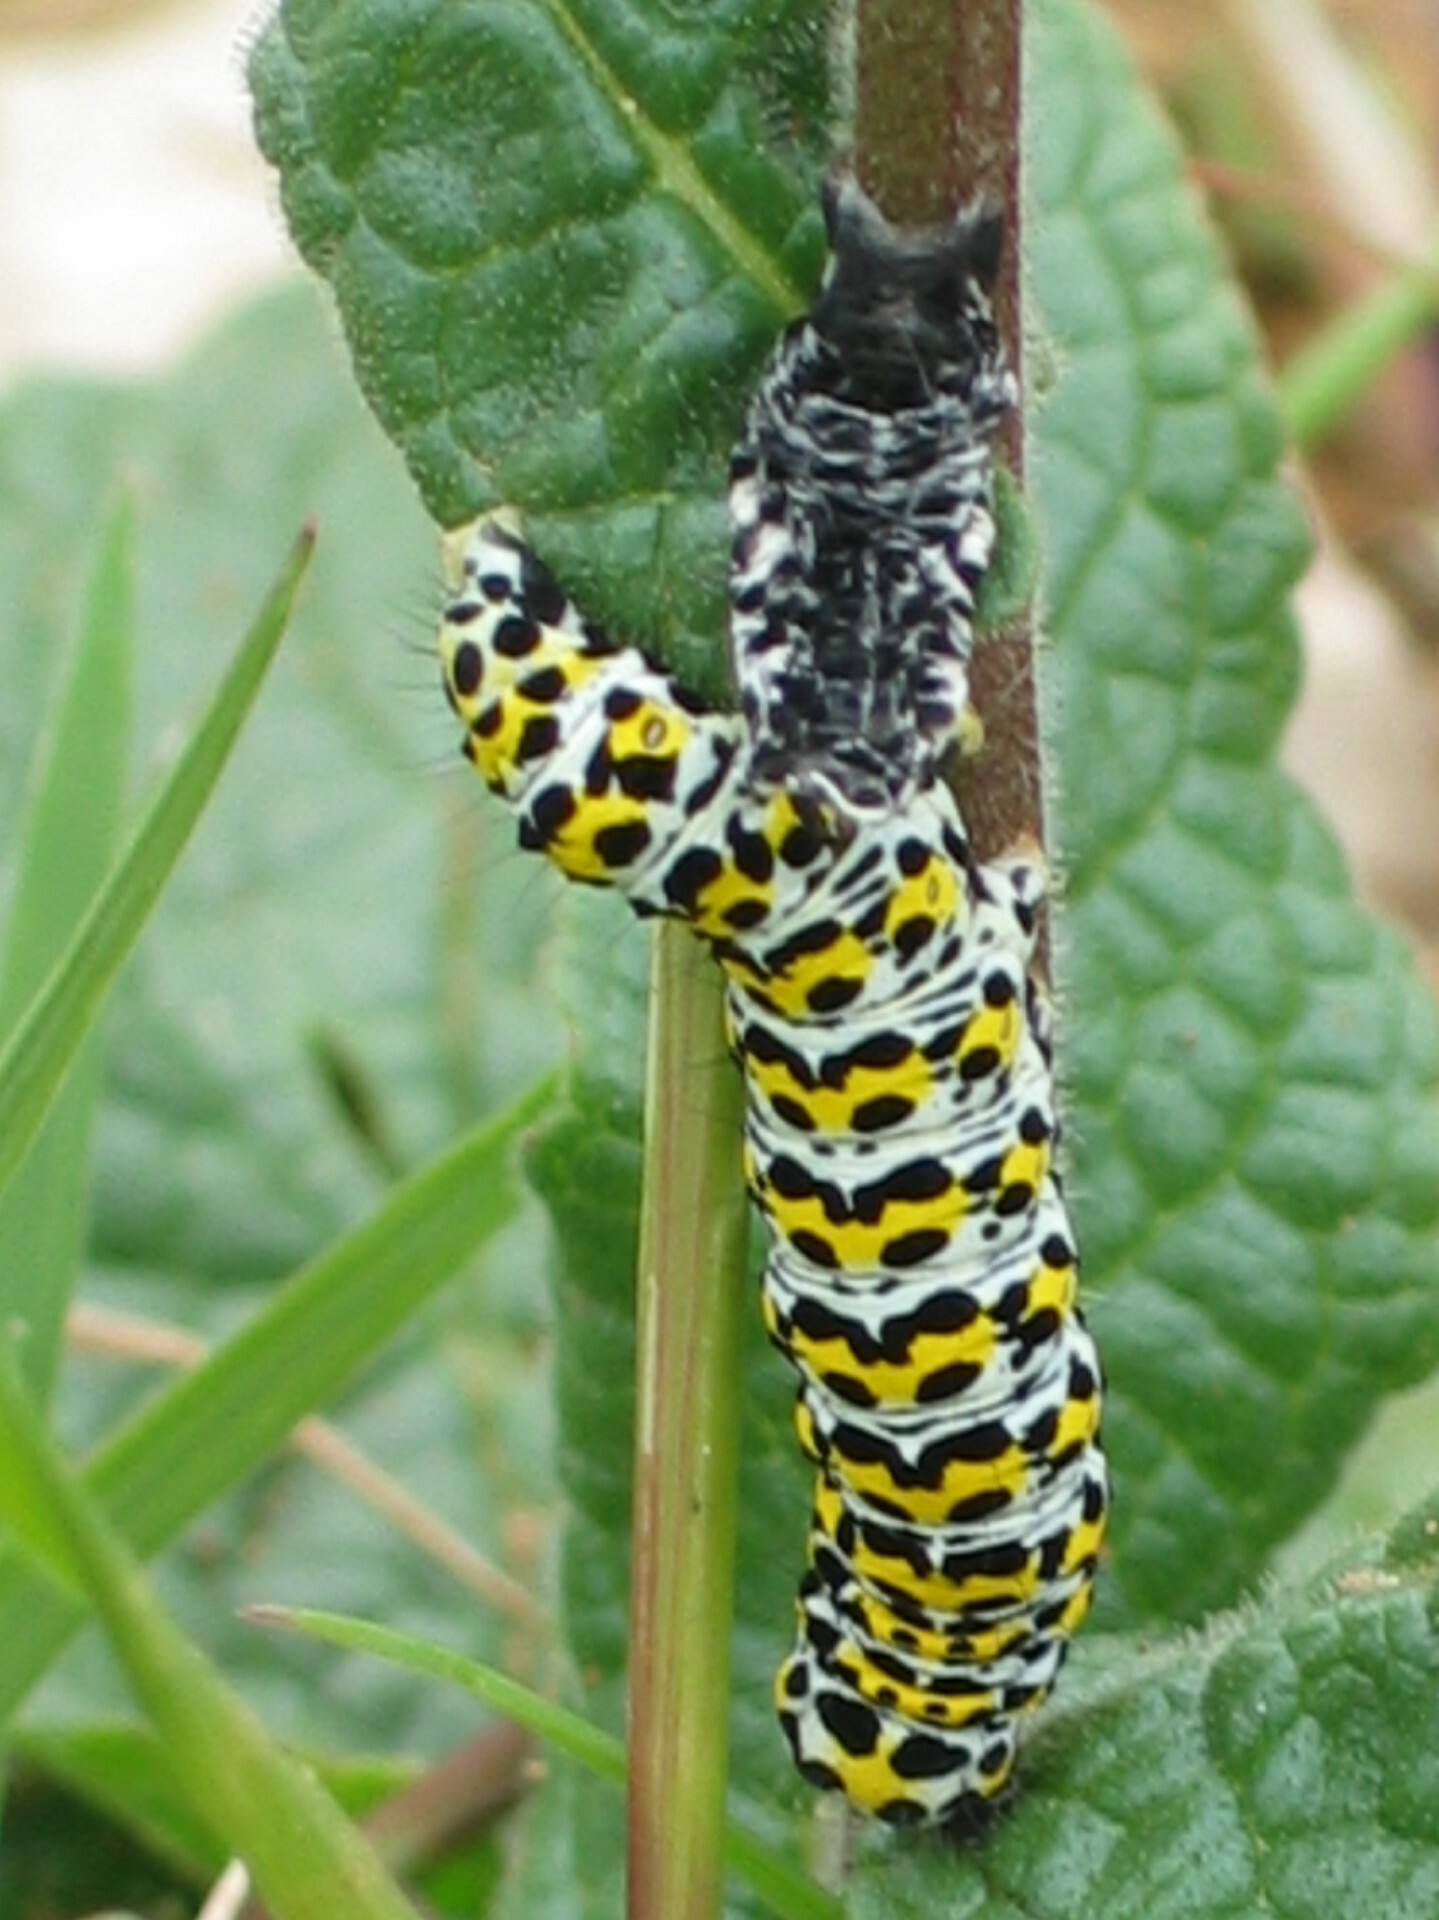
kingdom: Animalia
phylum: Arthropoda
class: Insecta
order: Lepidoptera
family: Noctuidae
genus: Cucullia
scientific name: Cucullia verbasci
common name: Mullein
